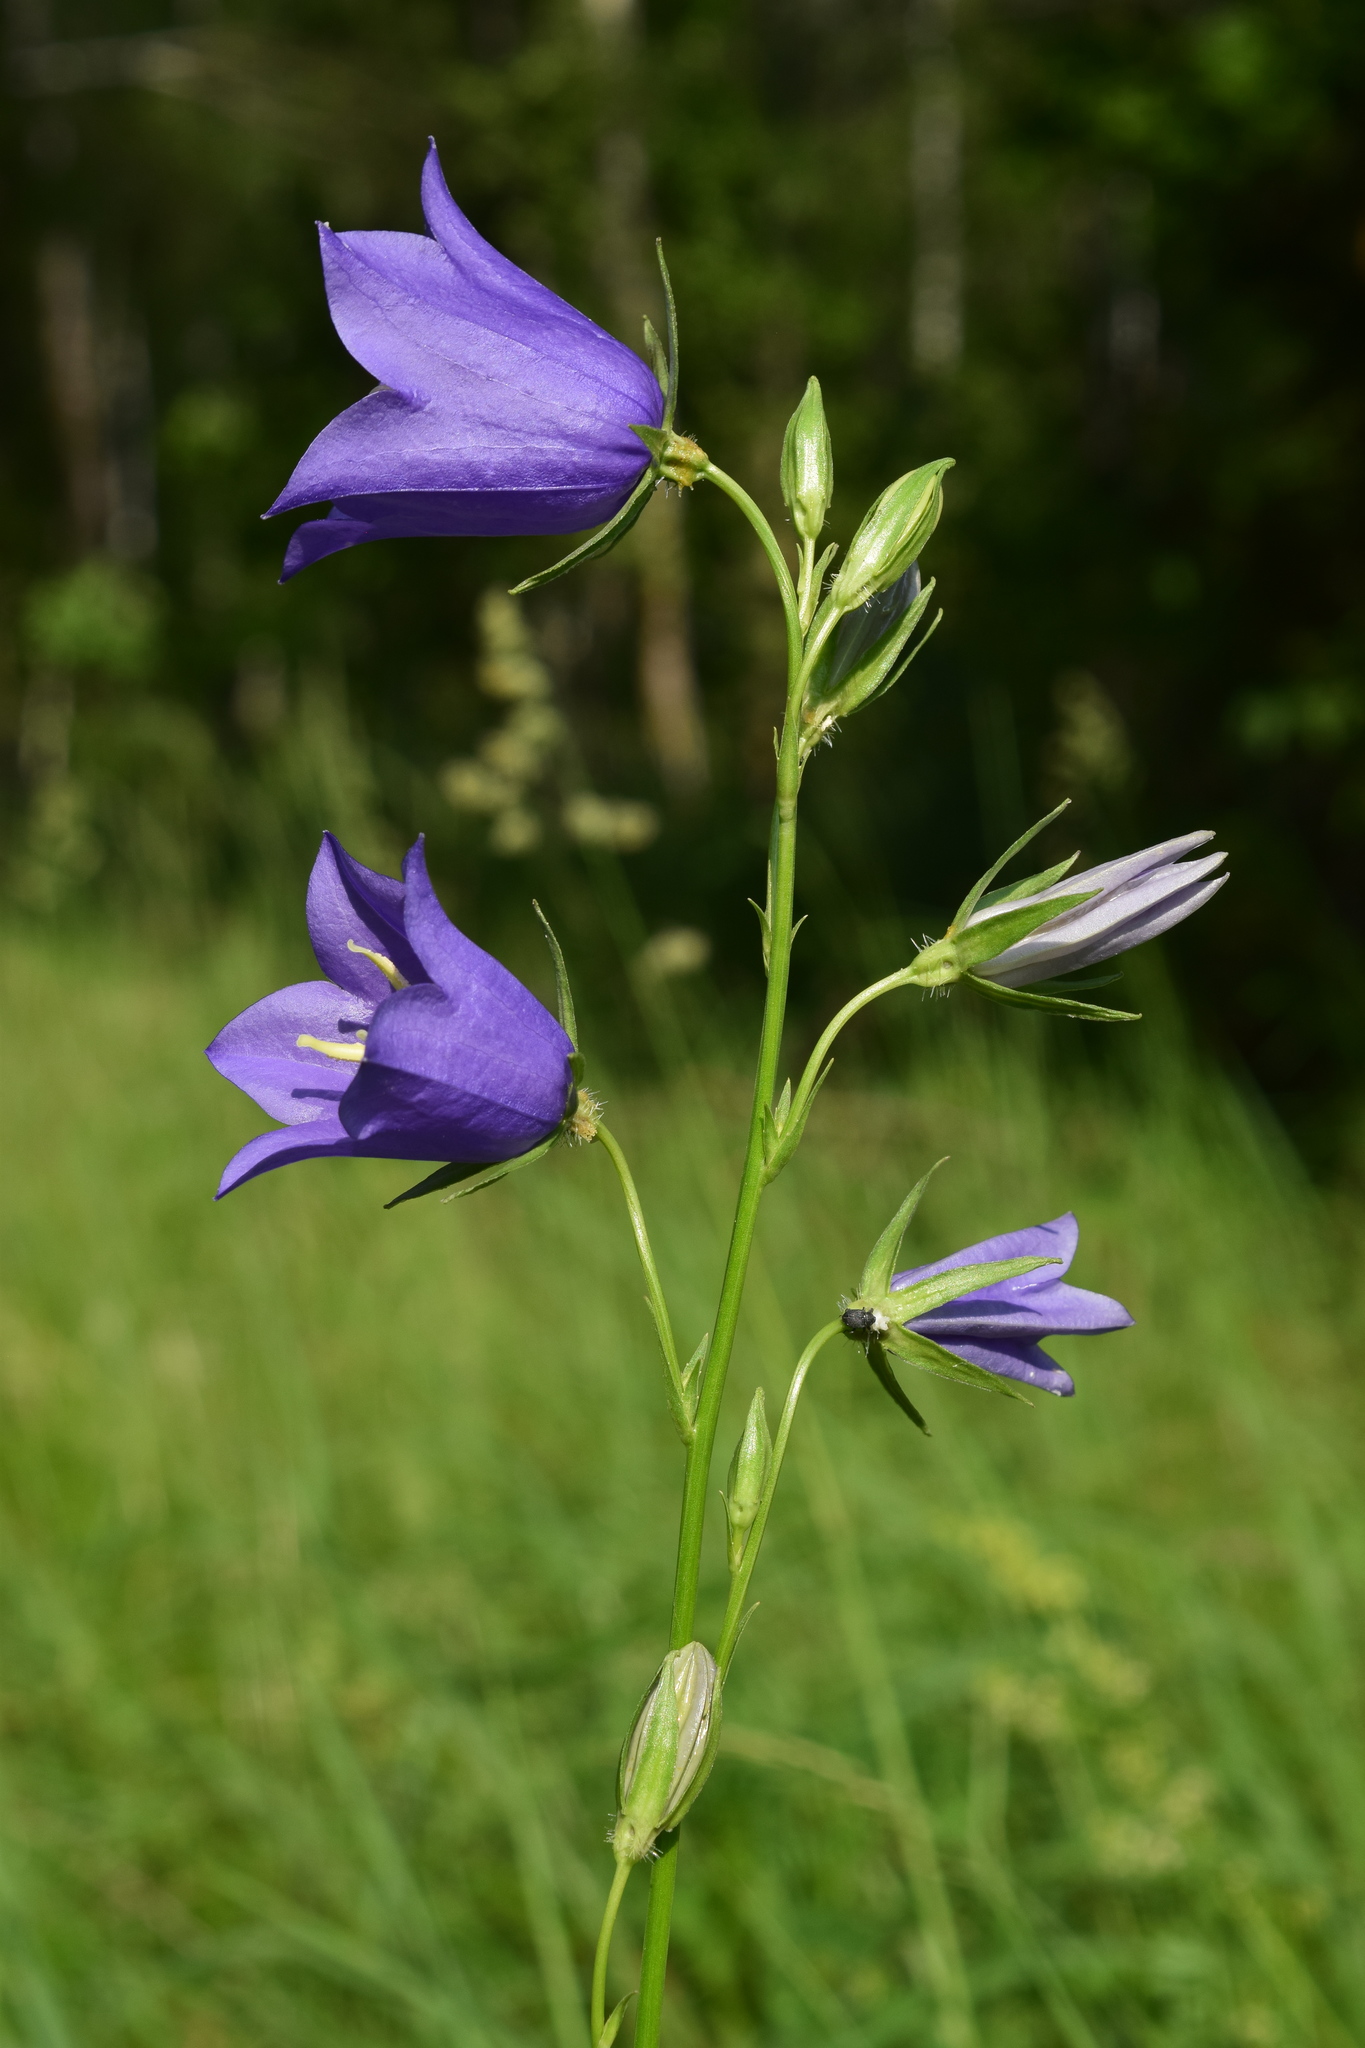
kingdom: Plantae
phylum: Tracheophyta
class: Magnoliopsida
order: Asterales
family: Campanulaceae
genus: Campanula
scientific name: Campanula persicifolia
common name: Peach-leaved bellflower
